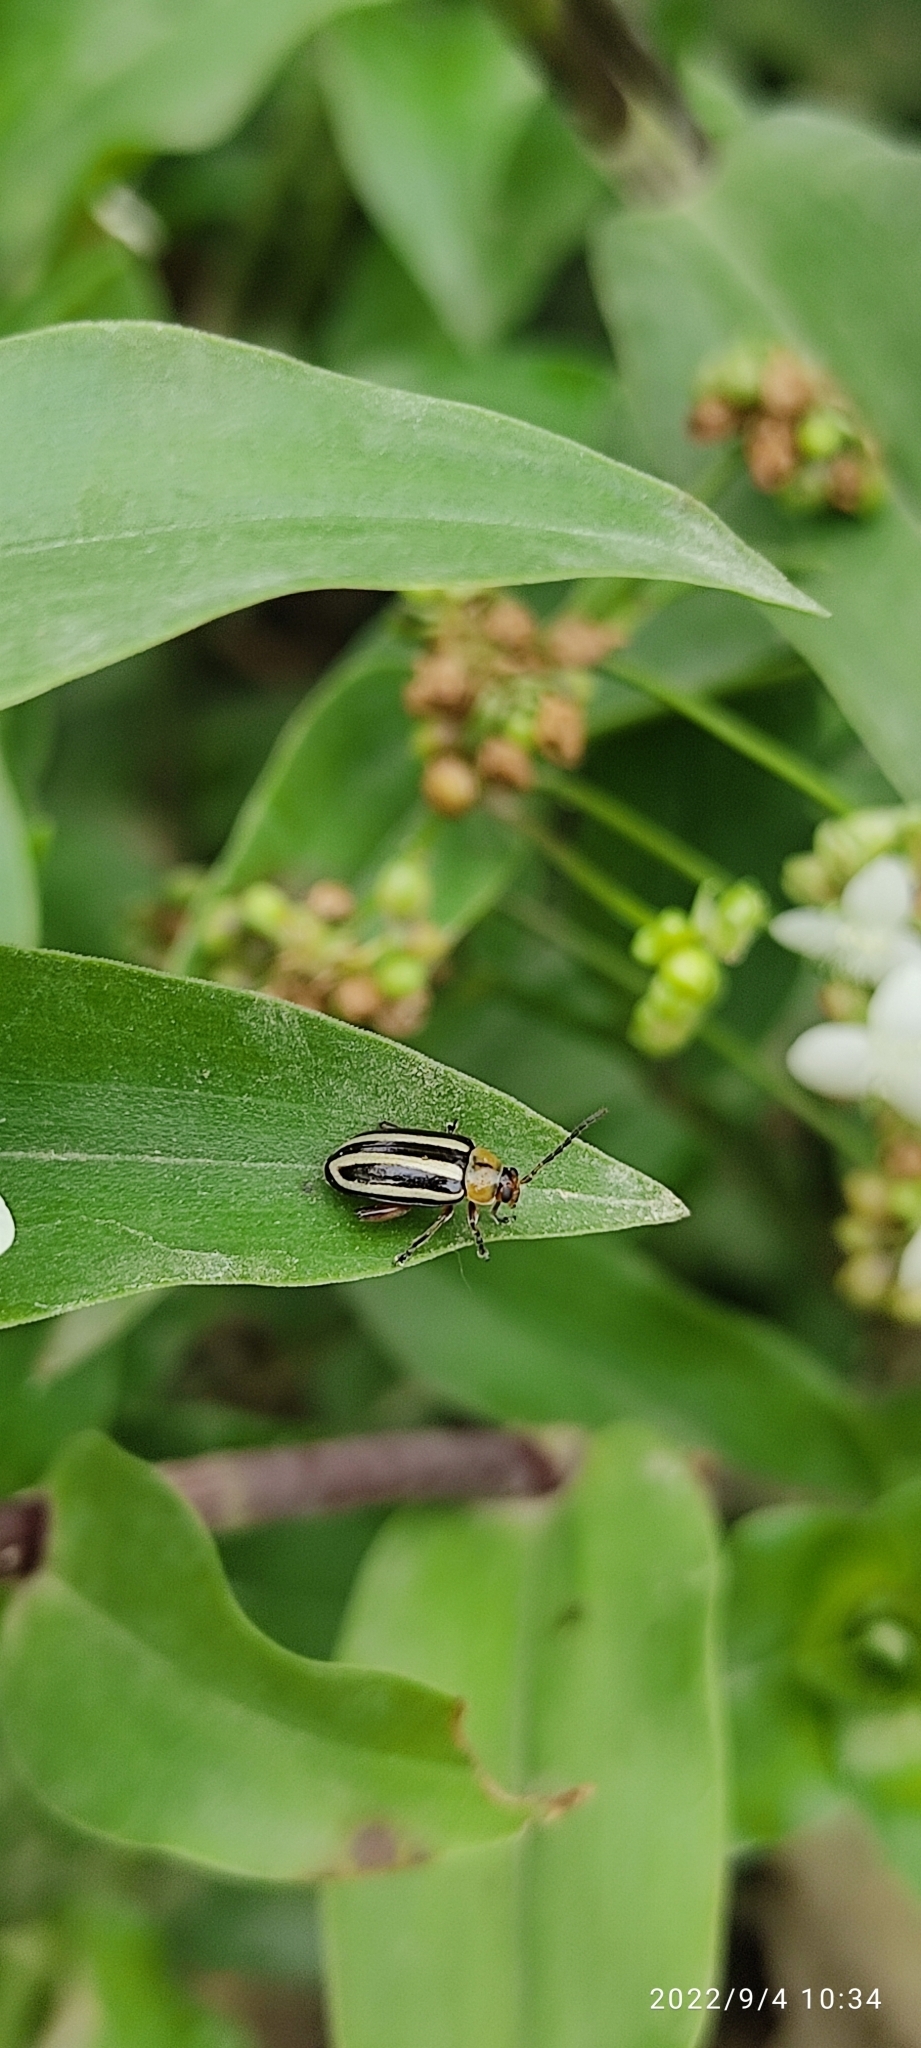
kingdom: Animalia
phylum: Arthropoda
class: Insecta
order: Coleoptera
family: Chrysomelidae
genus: Disonycha
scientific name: Disonycha glabrata
